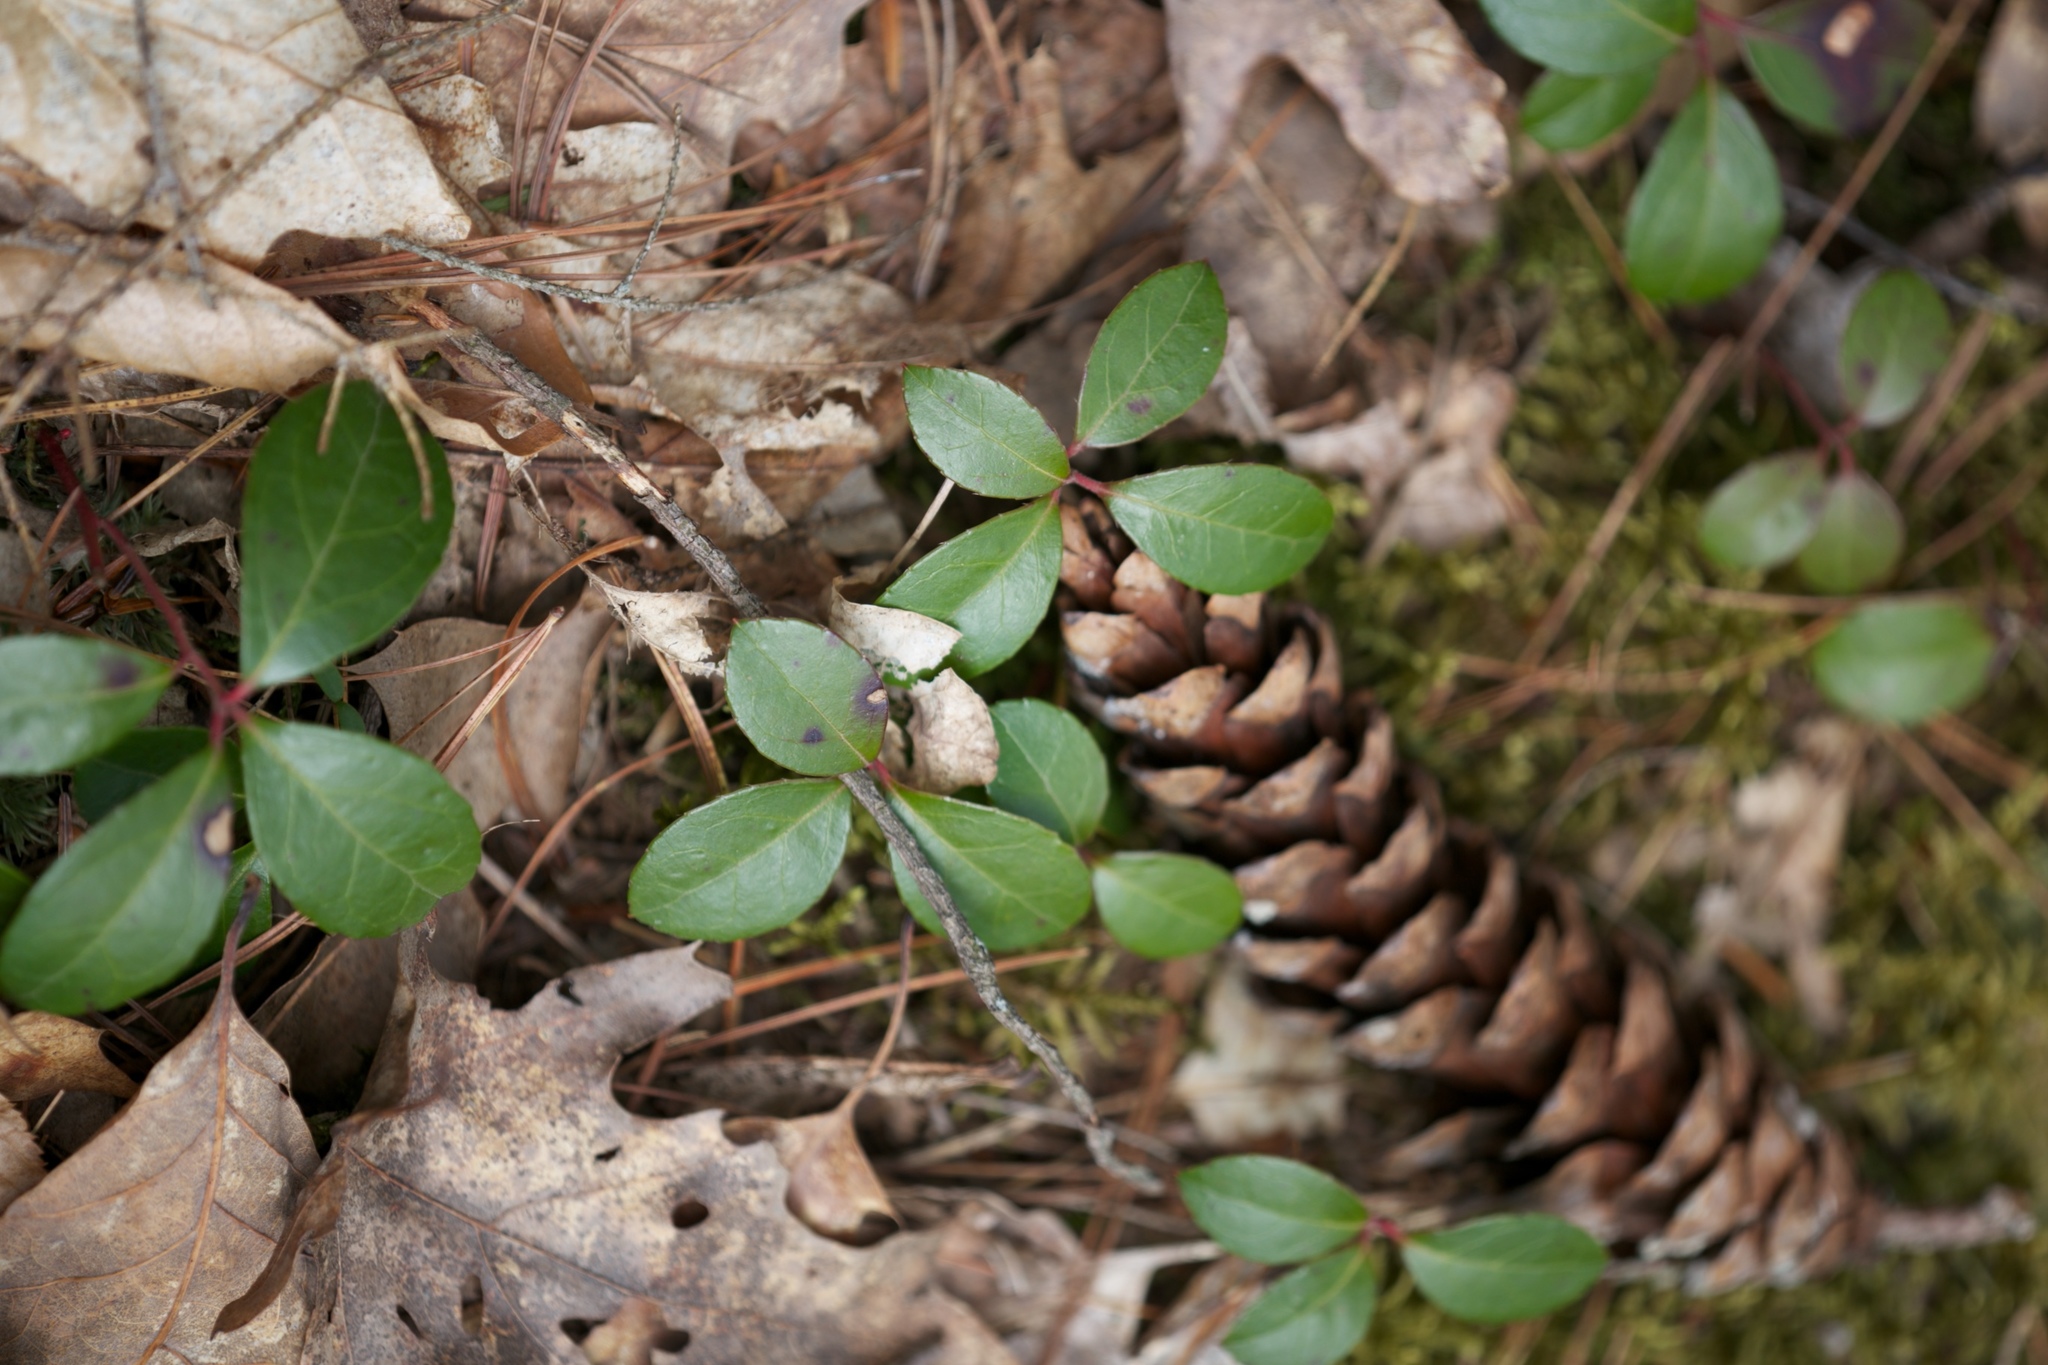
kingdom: Plantae
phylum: Tracheophyta
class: Magnoliopsida
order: Ericales
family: Ericaceae
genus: Gaultheria
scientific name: Gaultheria procumbens
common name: Checkerberry
